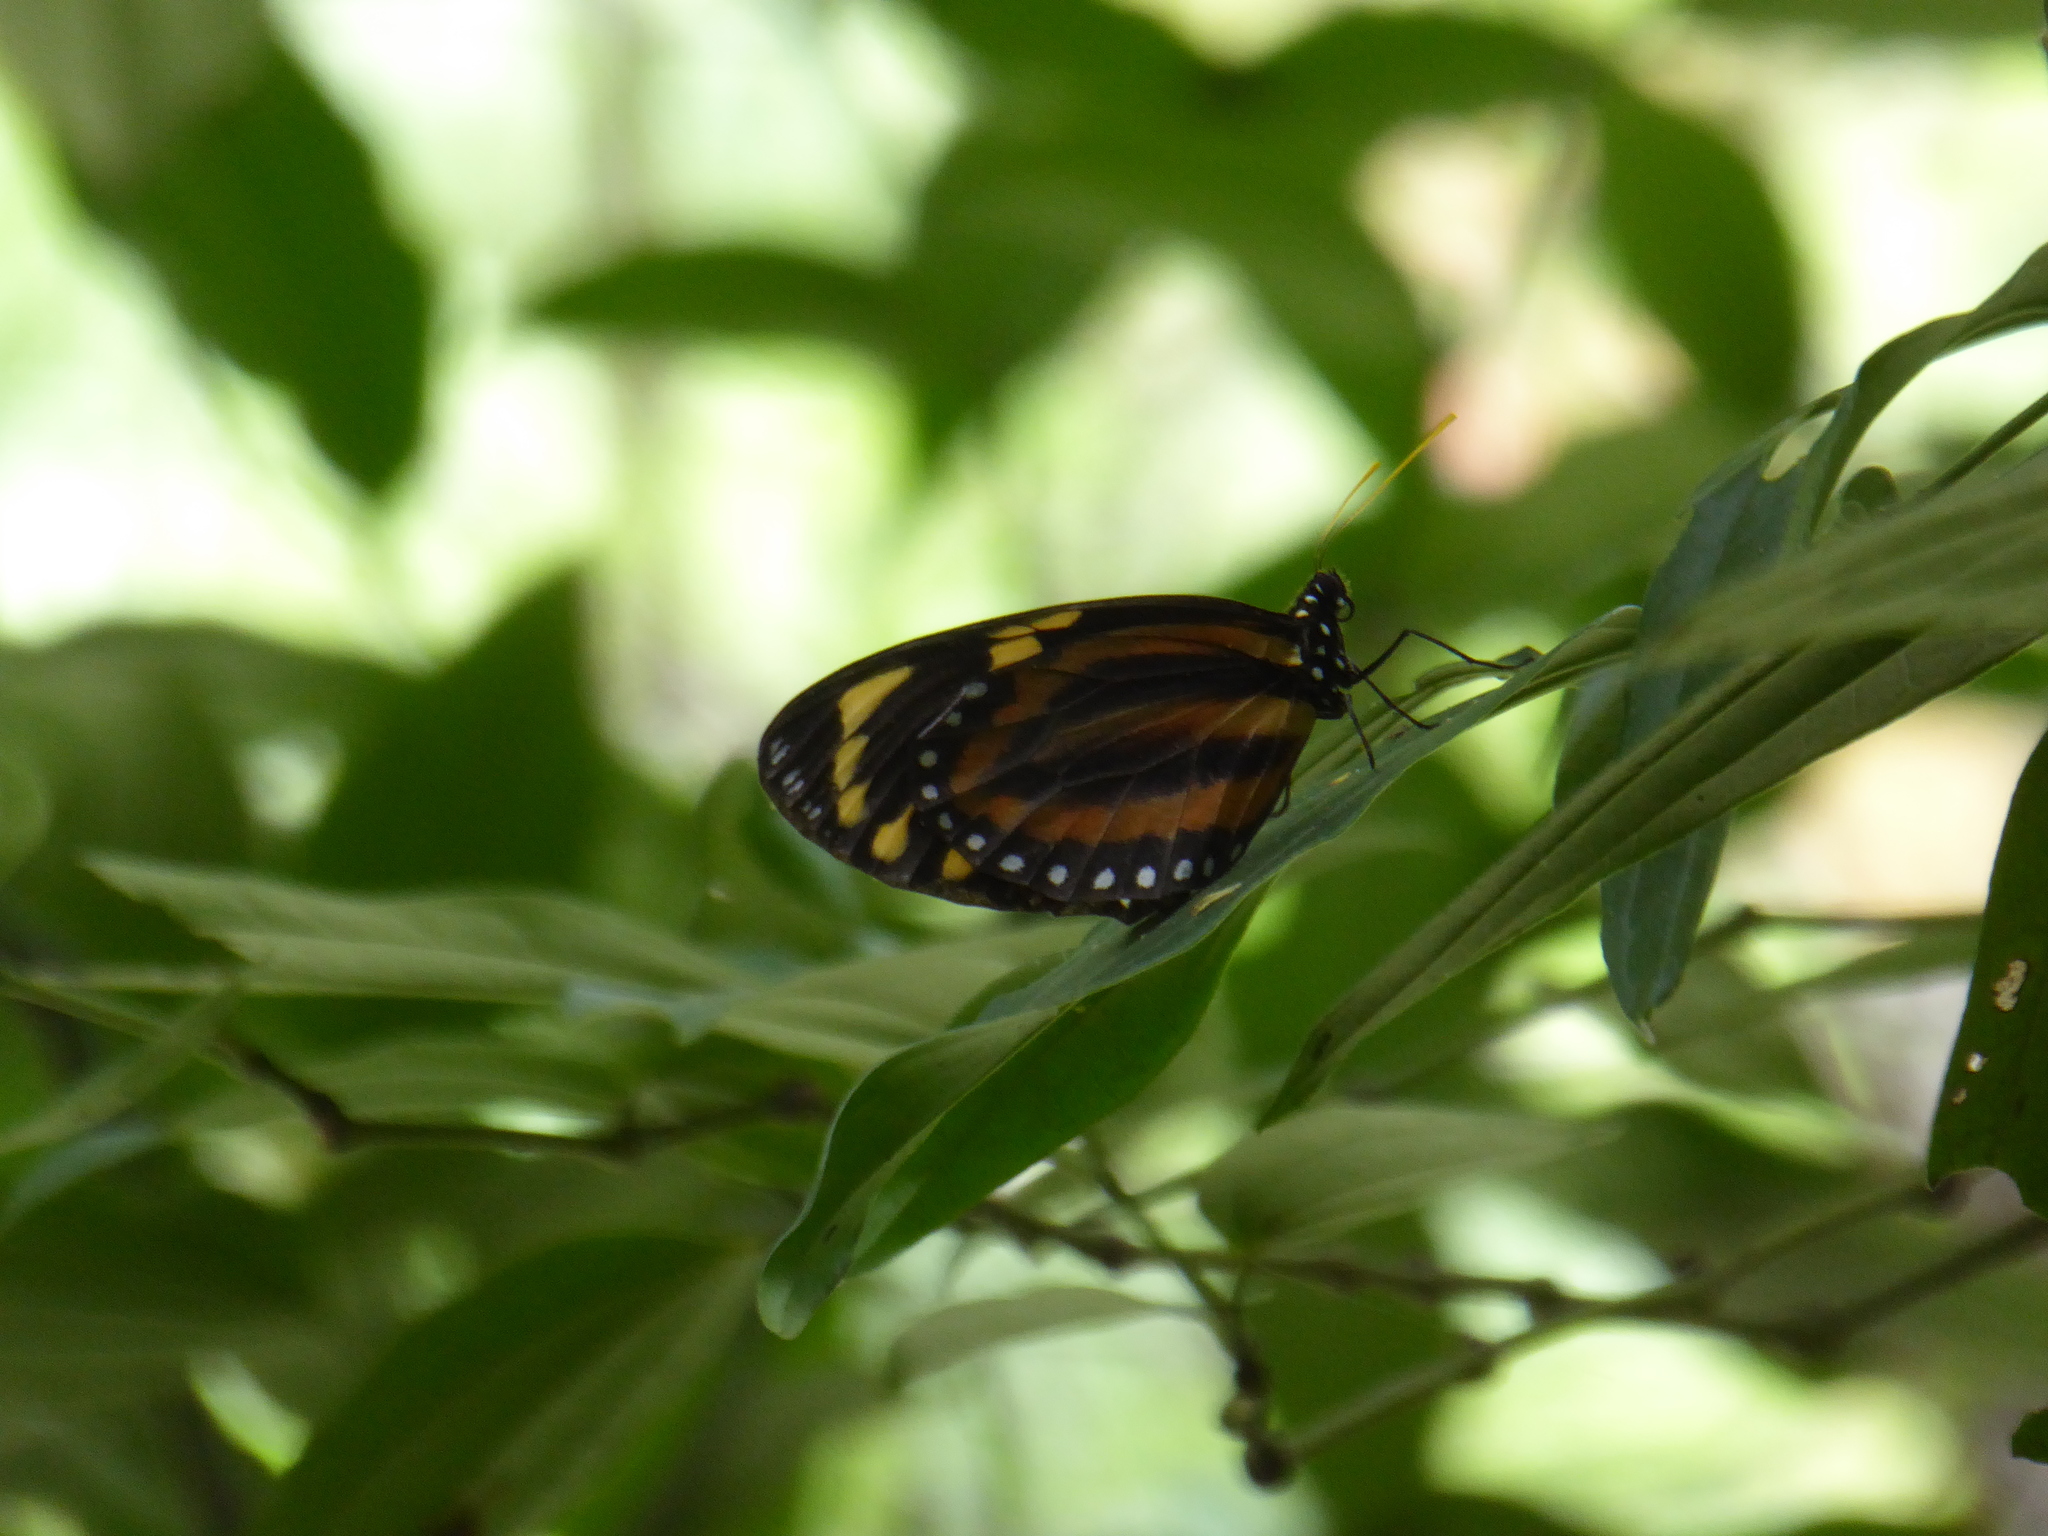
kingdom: Animalia
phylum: Arthropoda
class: Insecta
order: Lepidoptera
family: Nymphalidae
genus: Lycorea
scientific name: Lycorea cleobaea
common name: Tiger mimic-queen
